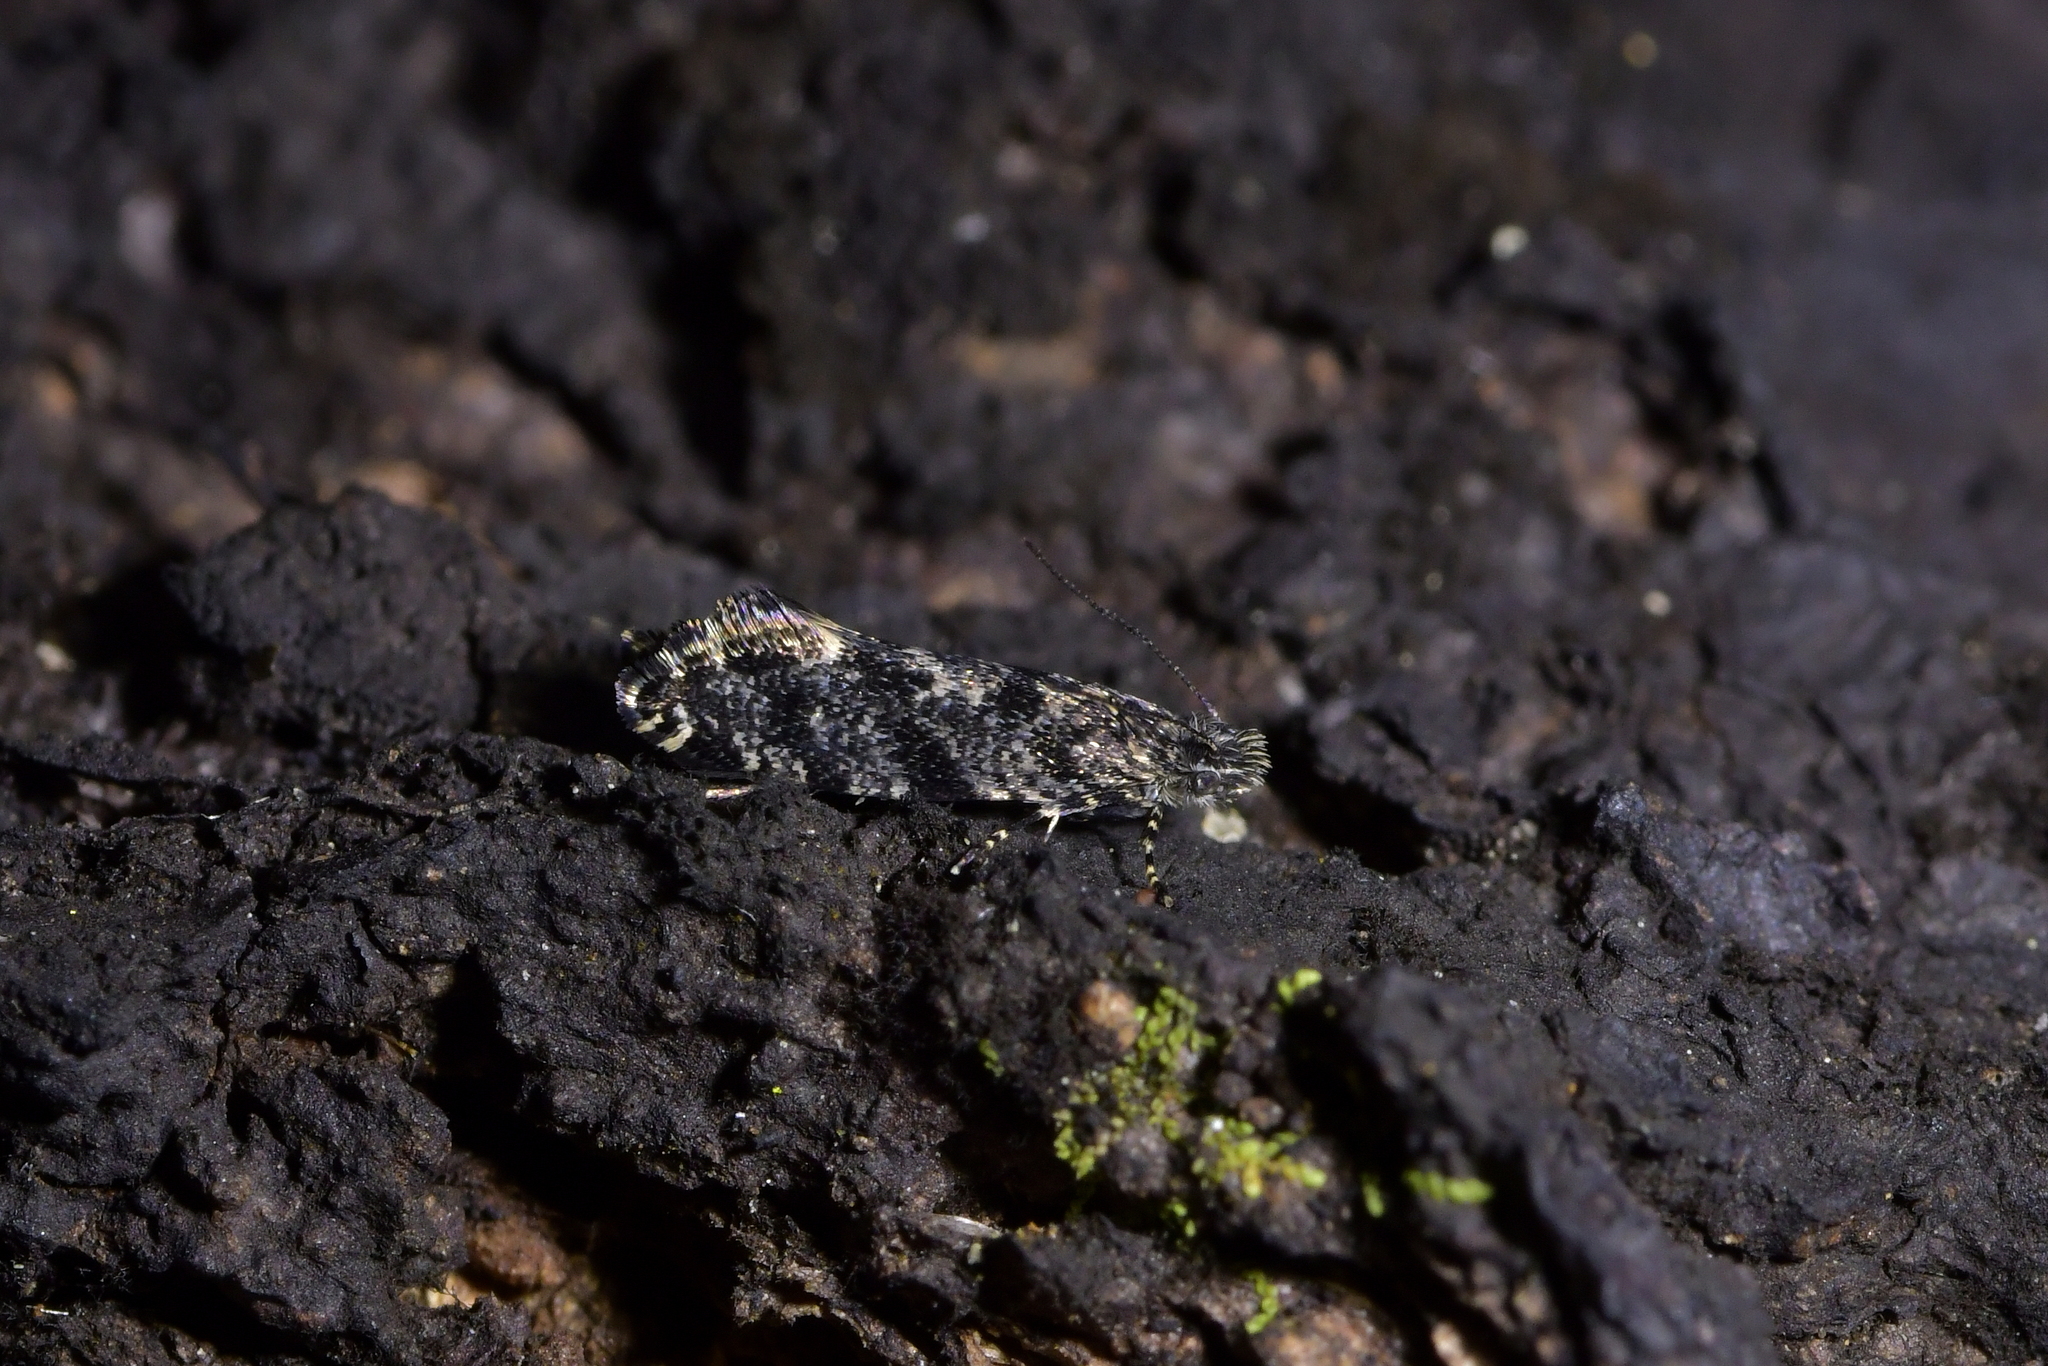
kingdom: Animalia
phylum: Arthropoda
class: Insecta
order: Lepidoptera
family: Tineidae
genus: Tinea
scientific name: Tinea fagicola
